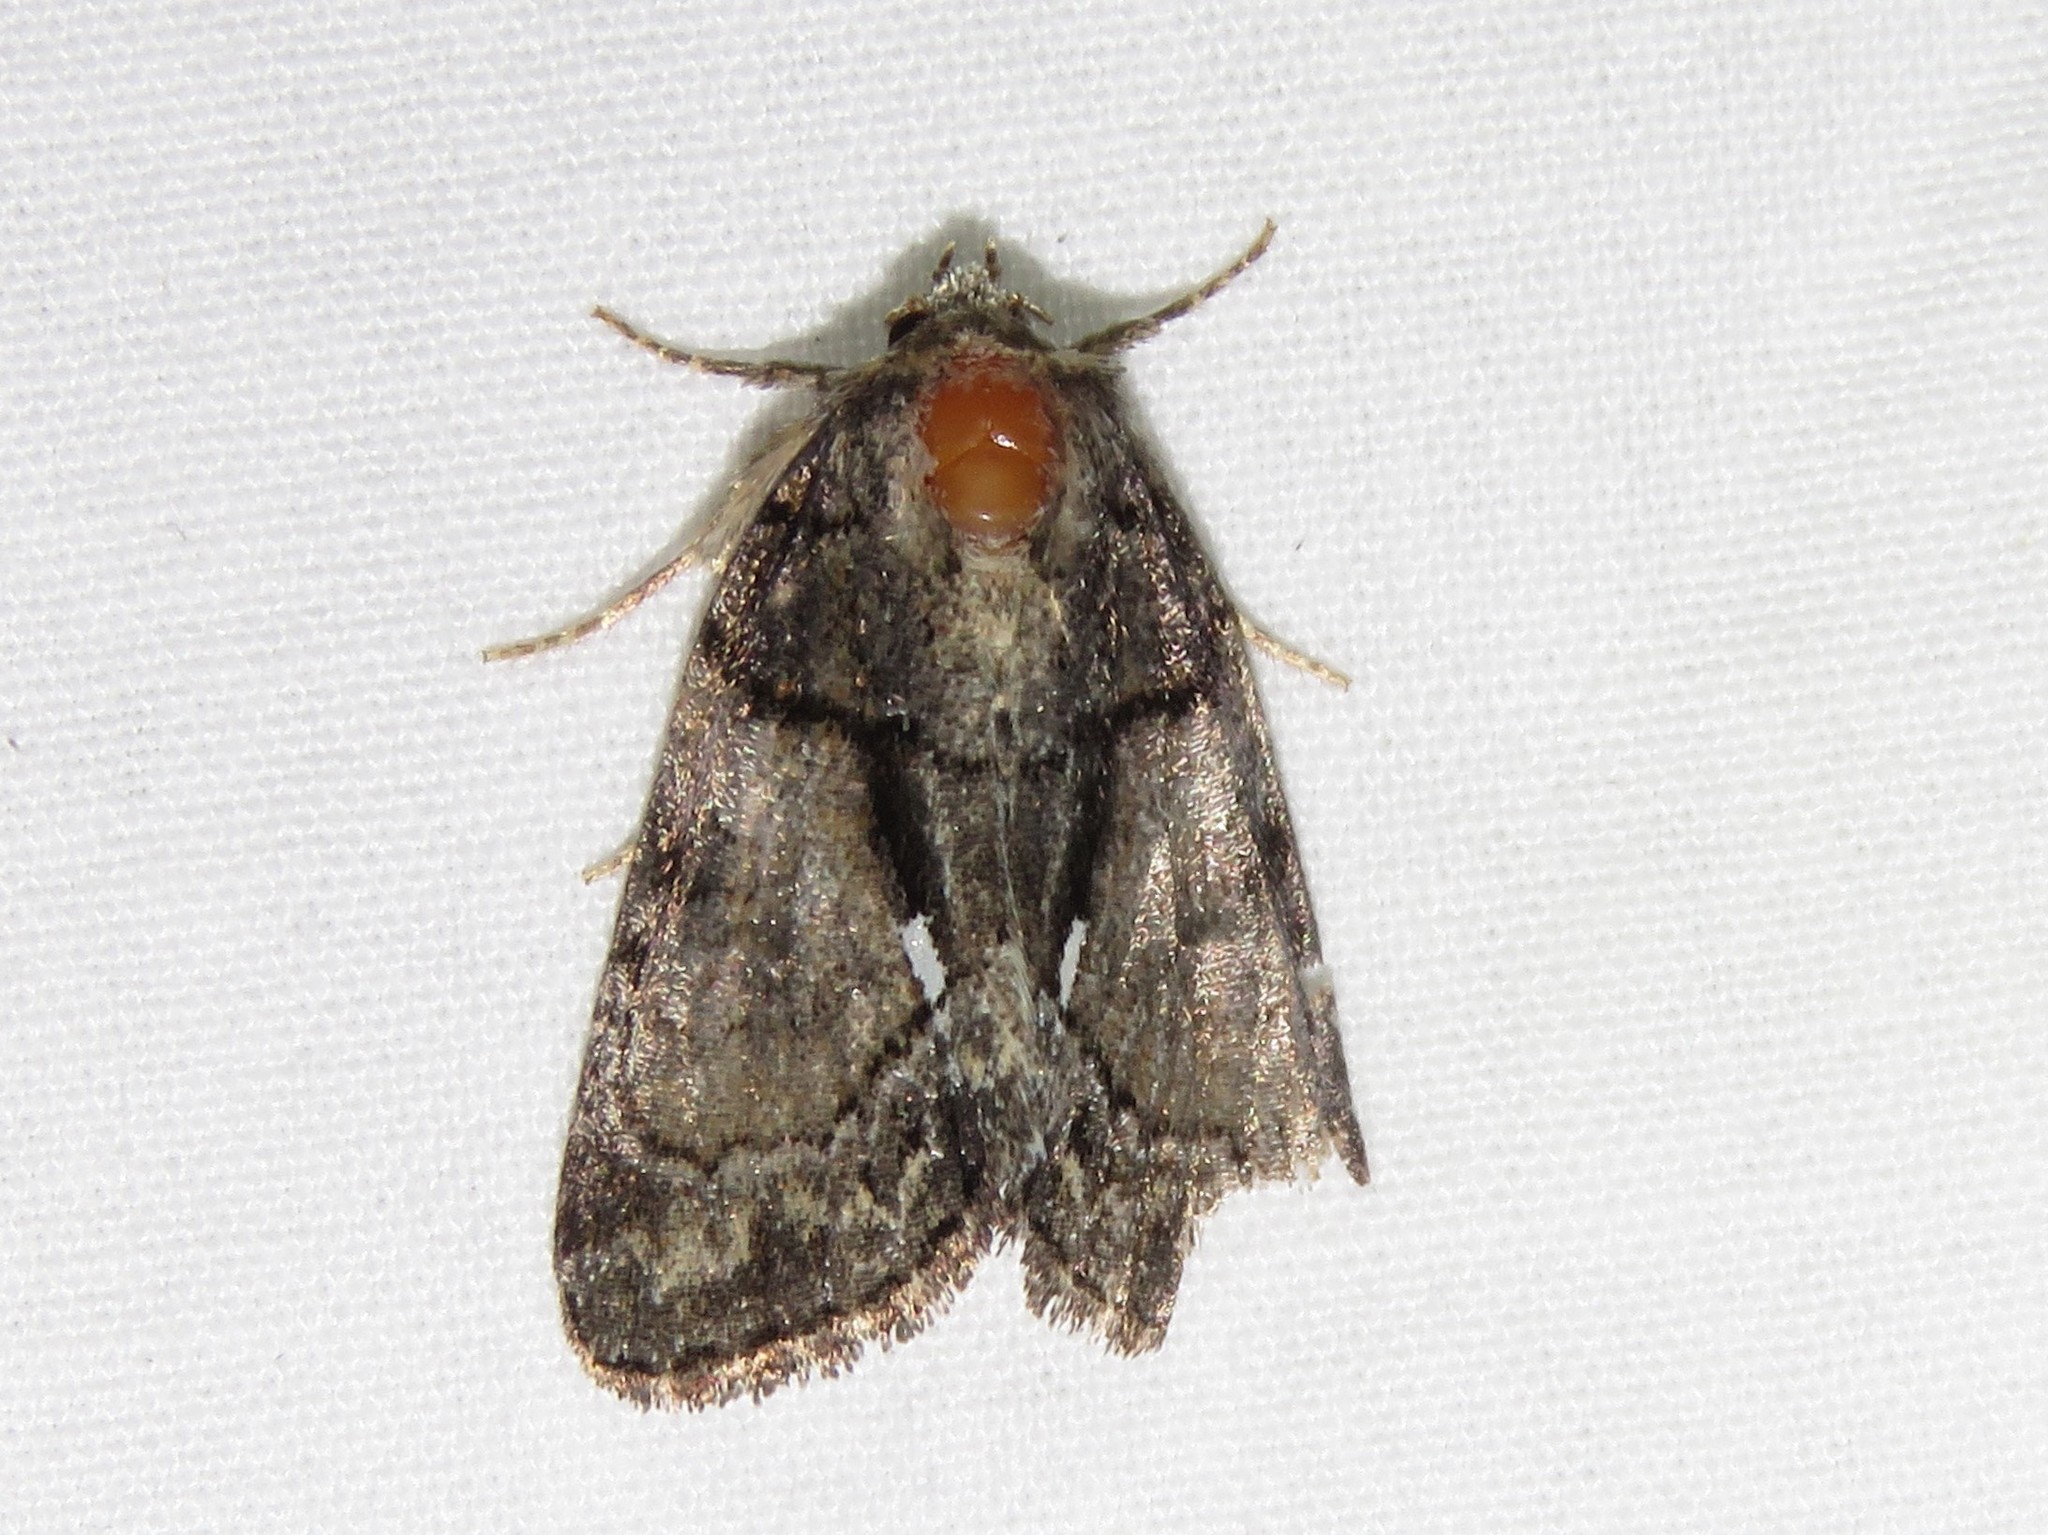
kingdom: Animalia
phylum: Arthropoda
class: Insecta
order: Lepidoptera
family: Noctuidae
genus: Chytonix
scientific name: Chytonix palliatricula
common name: Cloaked marvel
